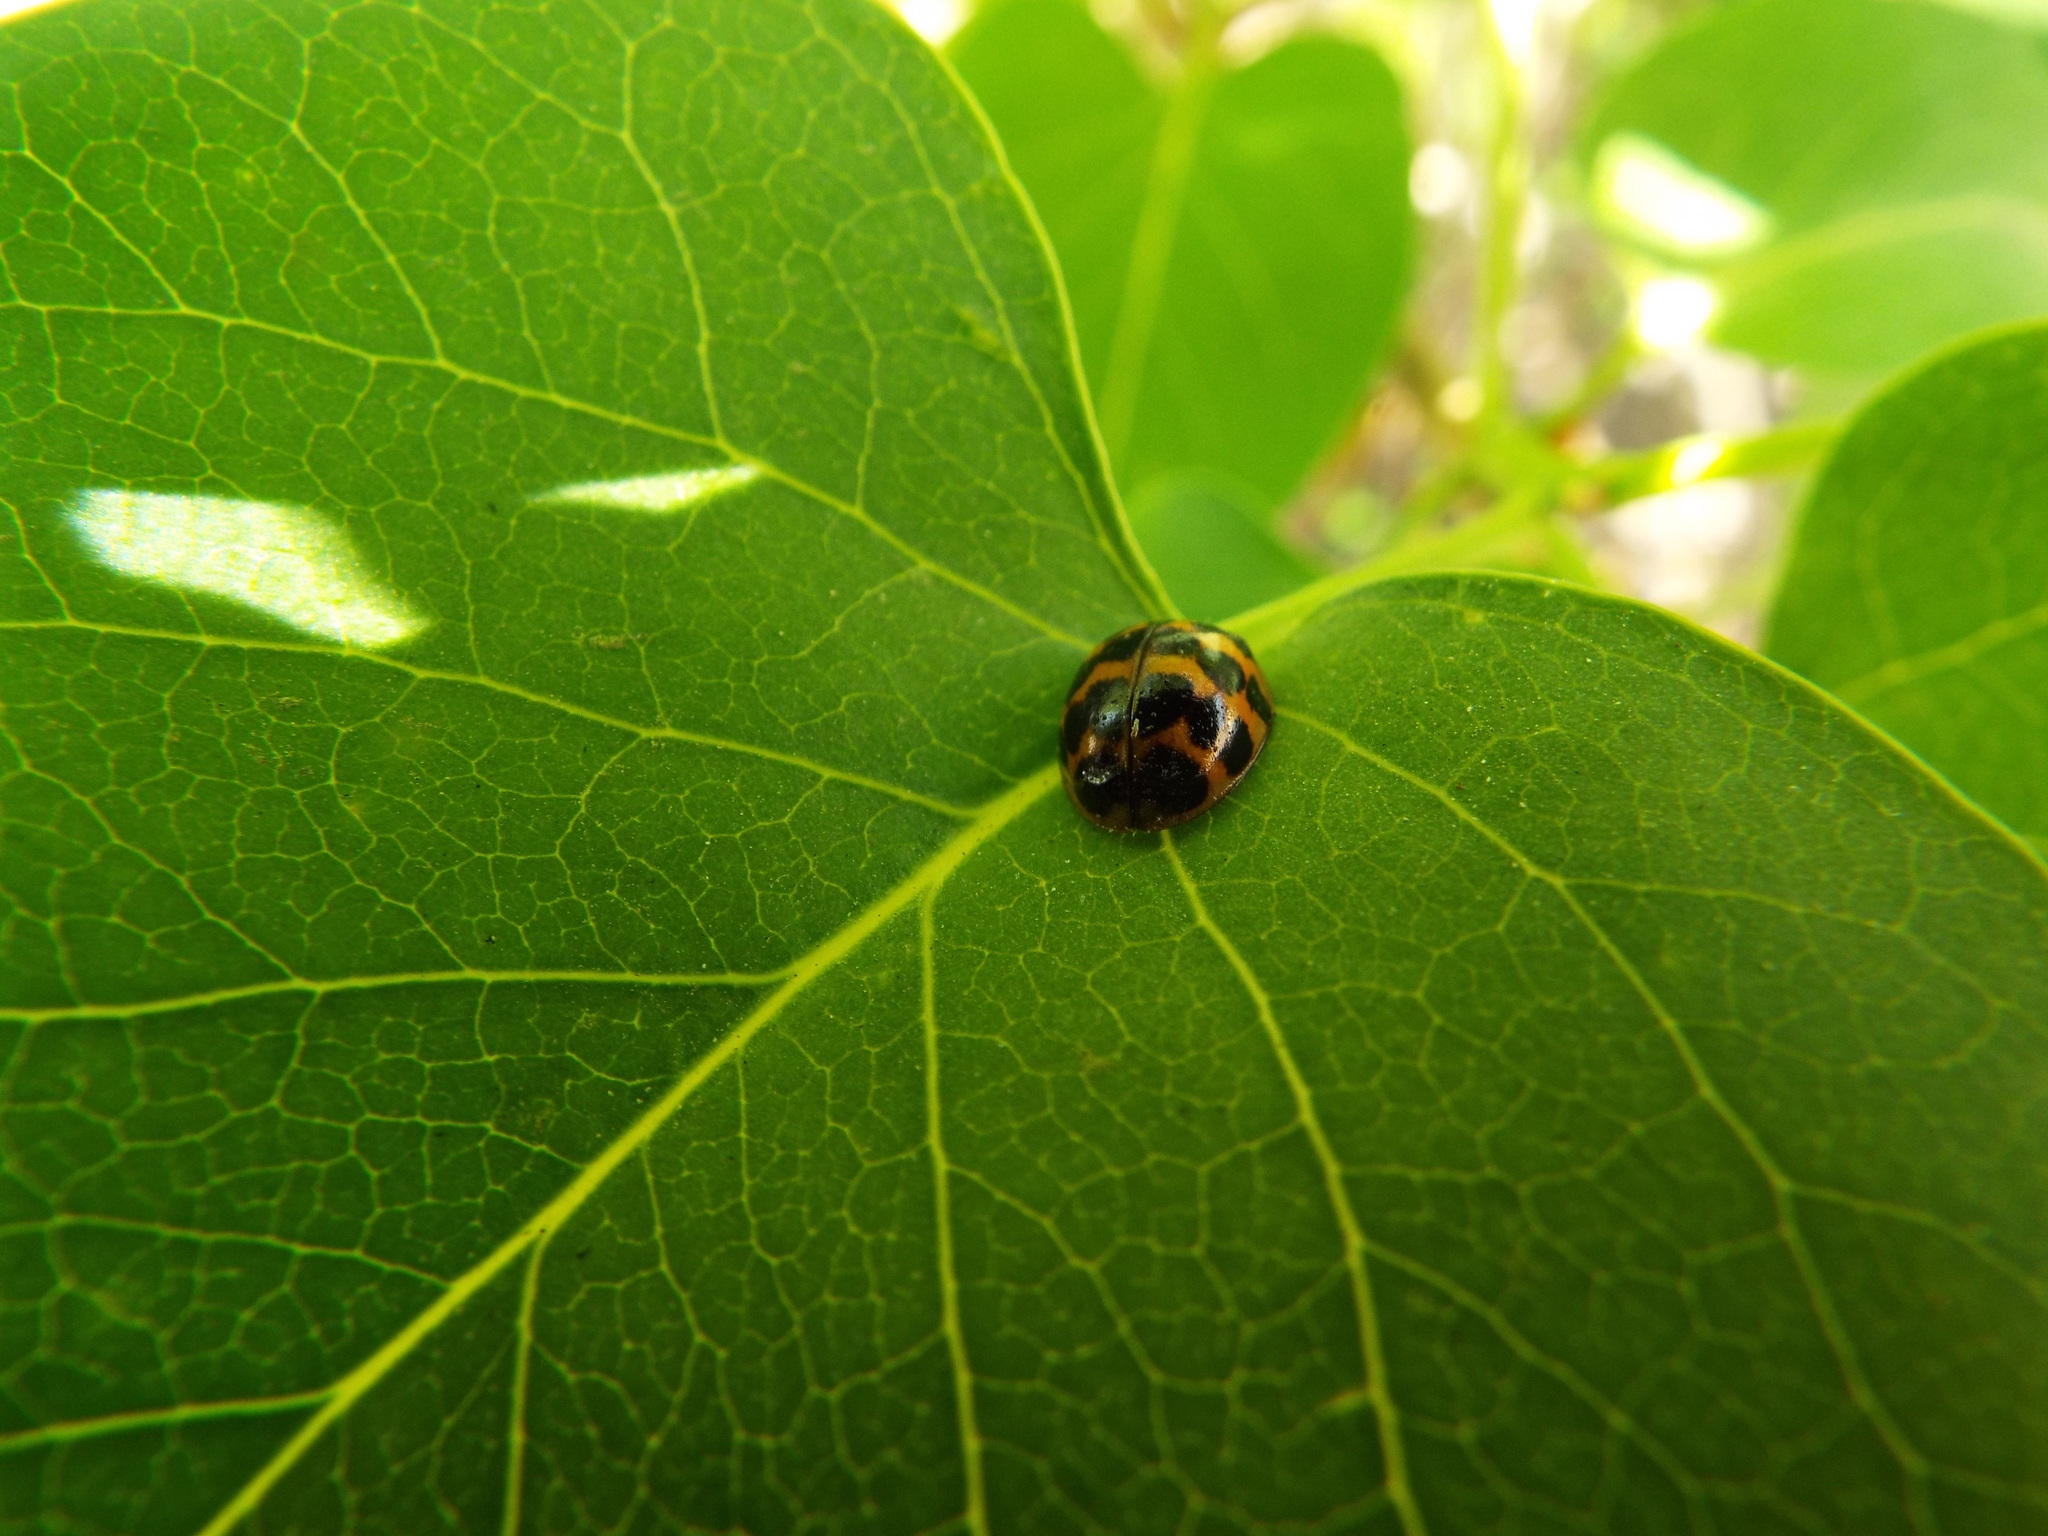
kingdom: Animalia
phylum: Arthropoda
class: Insecta
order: Coleoptera
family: Coccinellidae
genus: Harmonia
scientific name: Harmonia axyridis
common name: Harlequin ladybird
